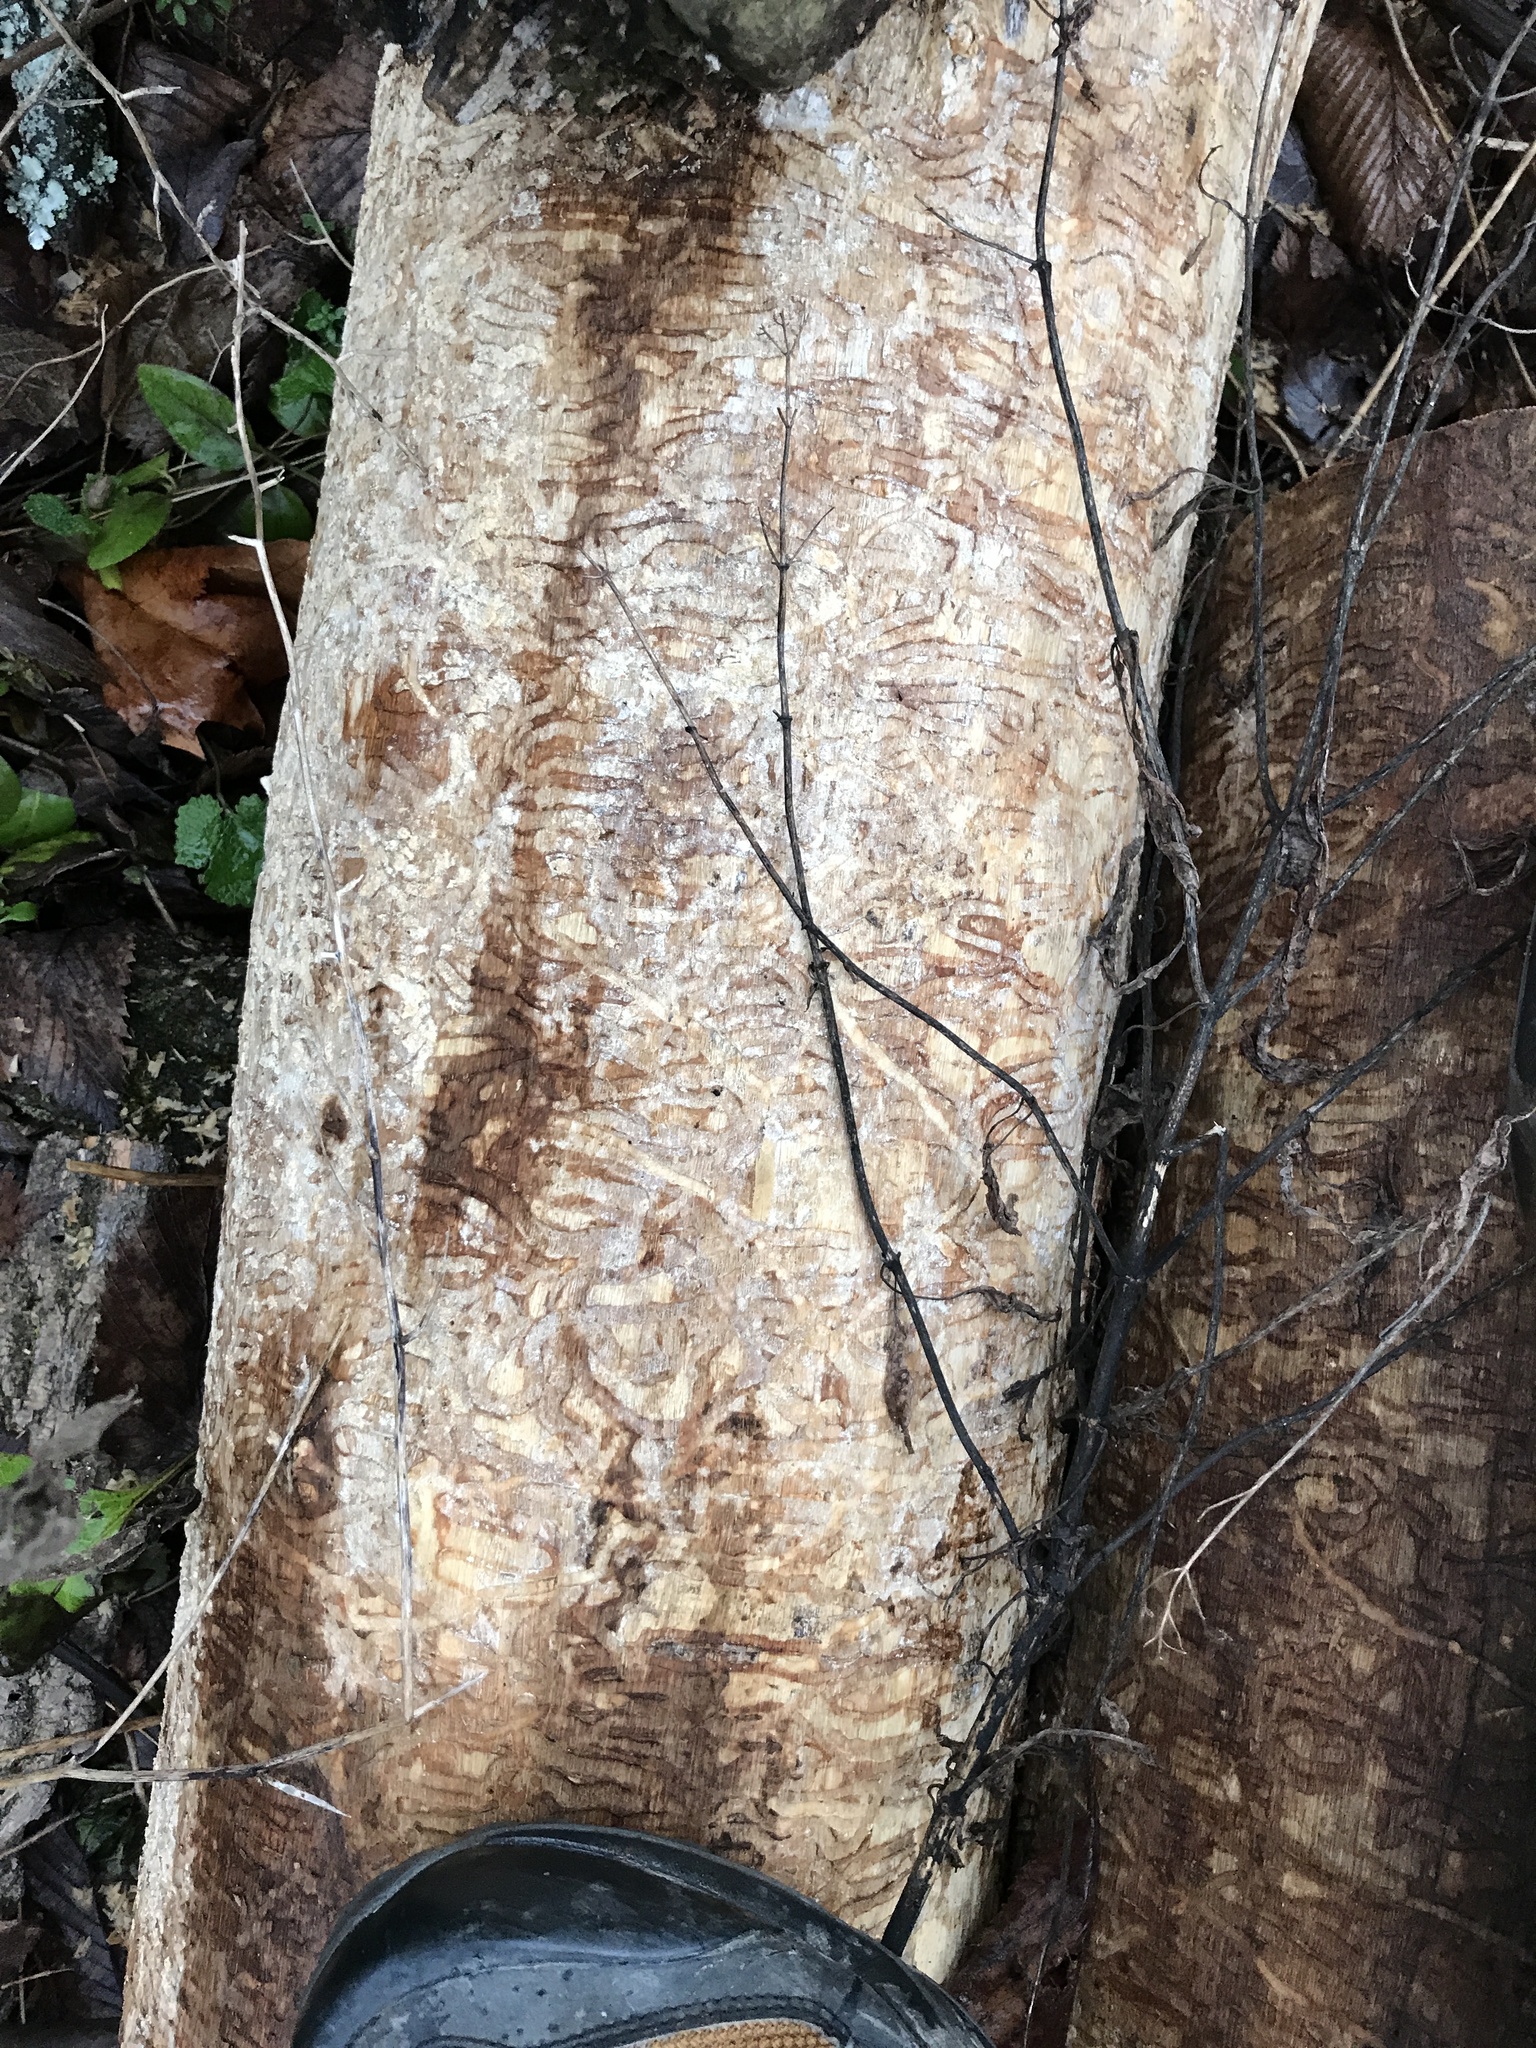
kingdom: Animalia
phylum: Arthropoda
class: Insecta
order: Coleoptera
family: Buprestidae
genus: Agrilus
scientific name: Agrilus planipennis
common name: Emerald ash borer
